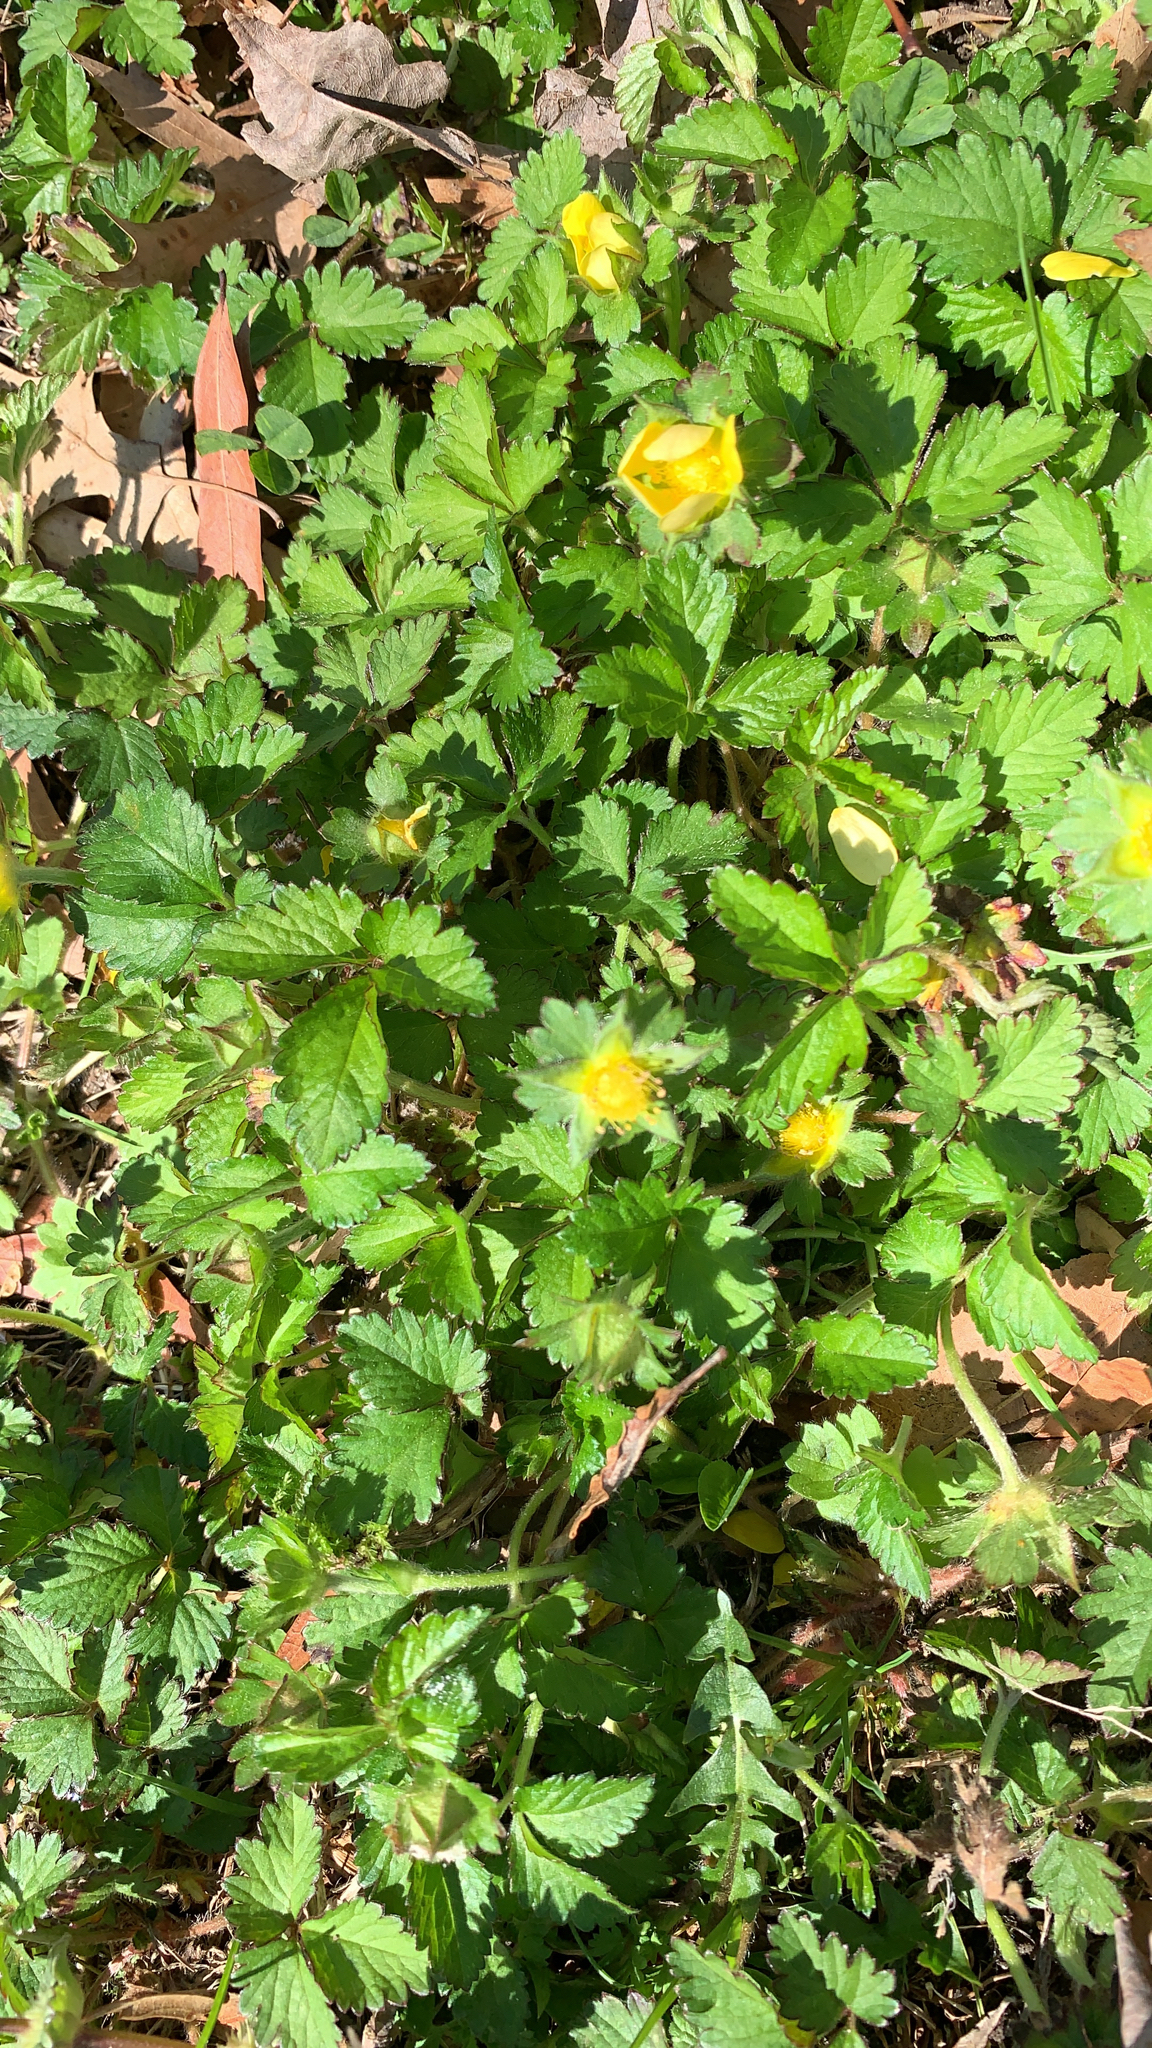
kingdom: Plantae
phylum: Tracheophyta
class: Magnoliopsida
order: Rosales
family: Rosaceae
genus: Potentilla
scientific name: Potentilla indica
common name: Yellow-flowered strawberry
